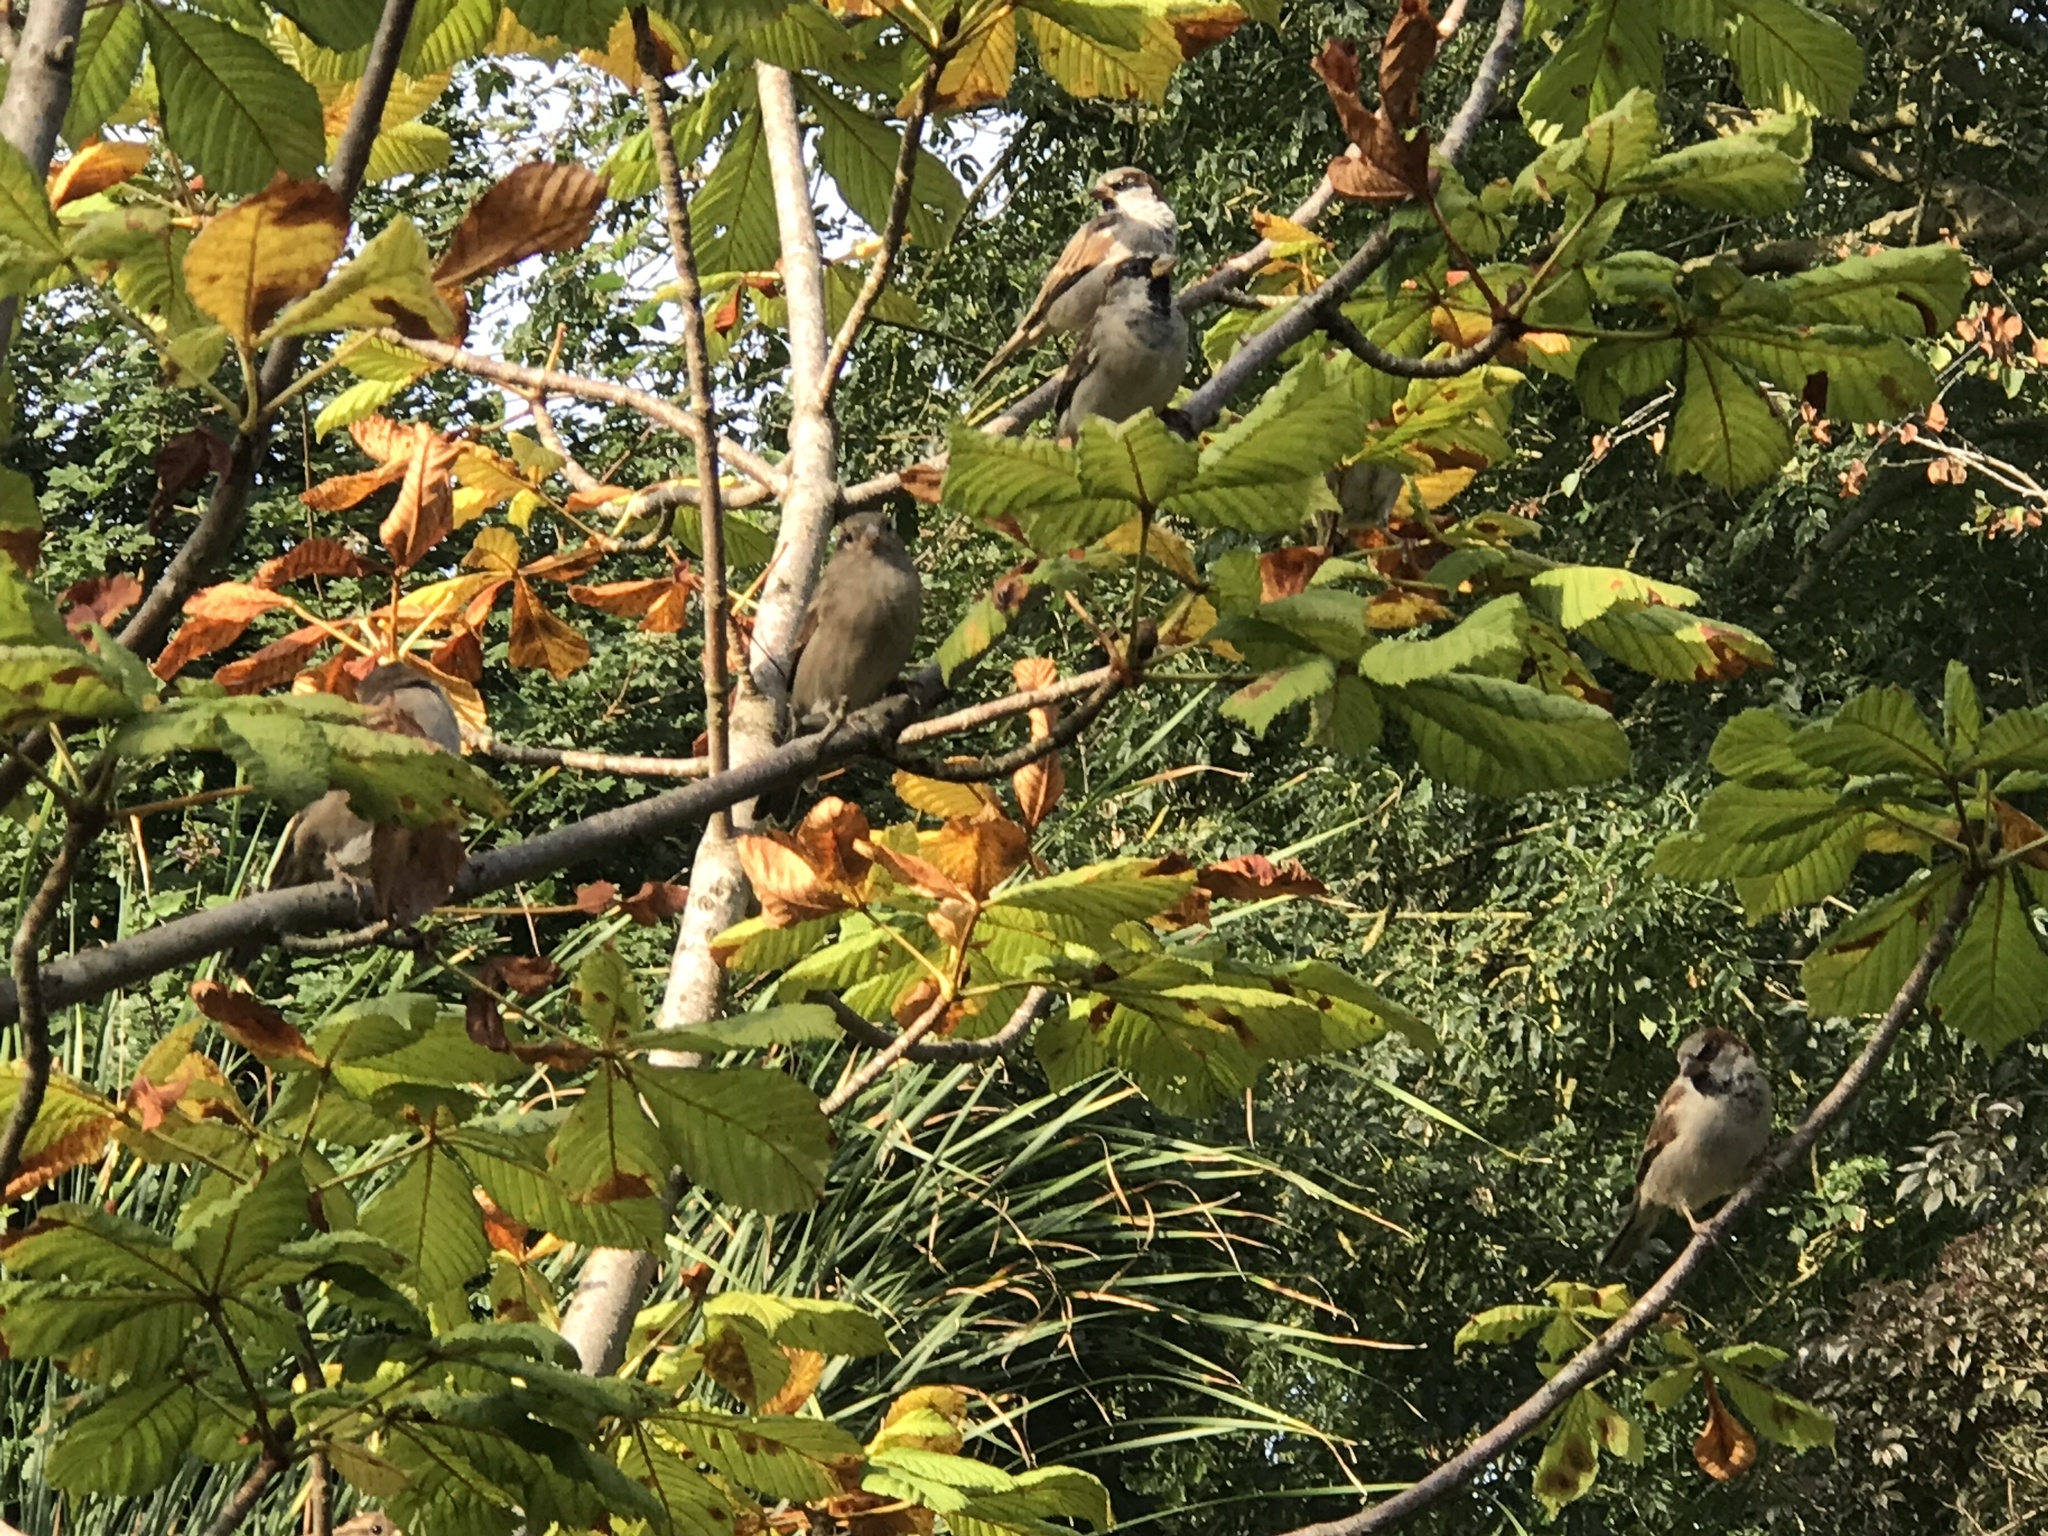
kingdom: Animalia
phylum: Chordata
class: Aves
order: Passeriformes
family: Passeridae
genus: Passer
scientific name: Passer domesticus
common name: House sparrow
